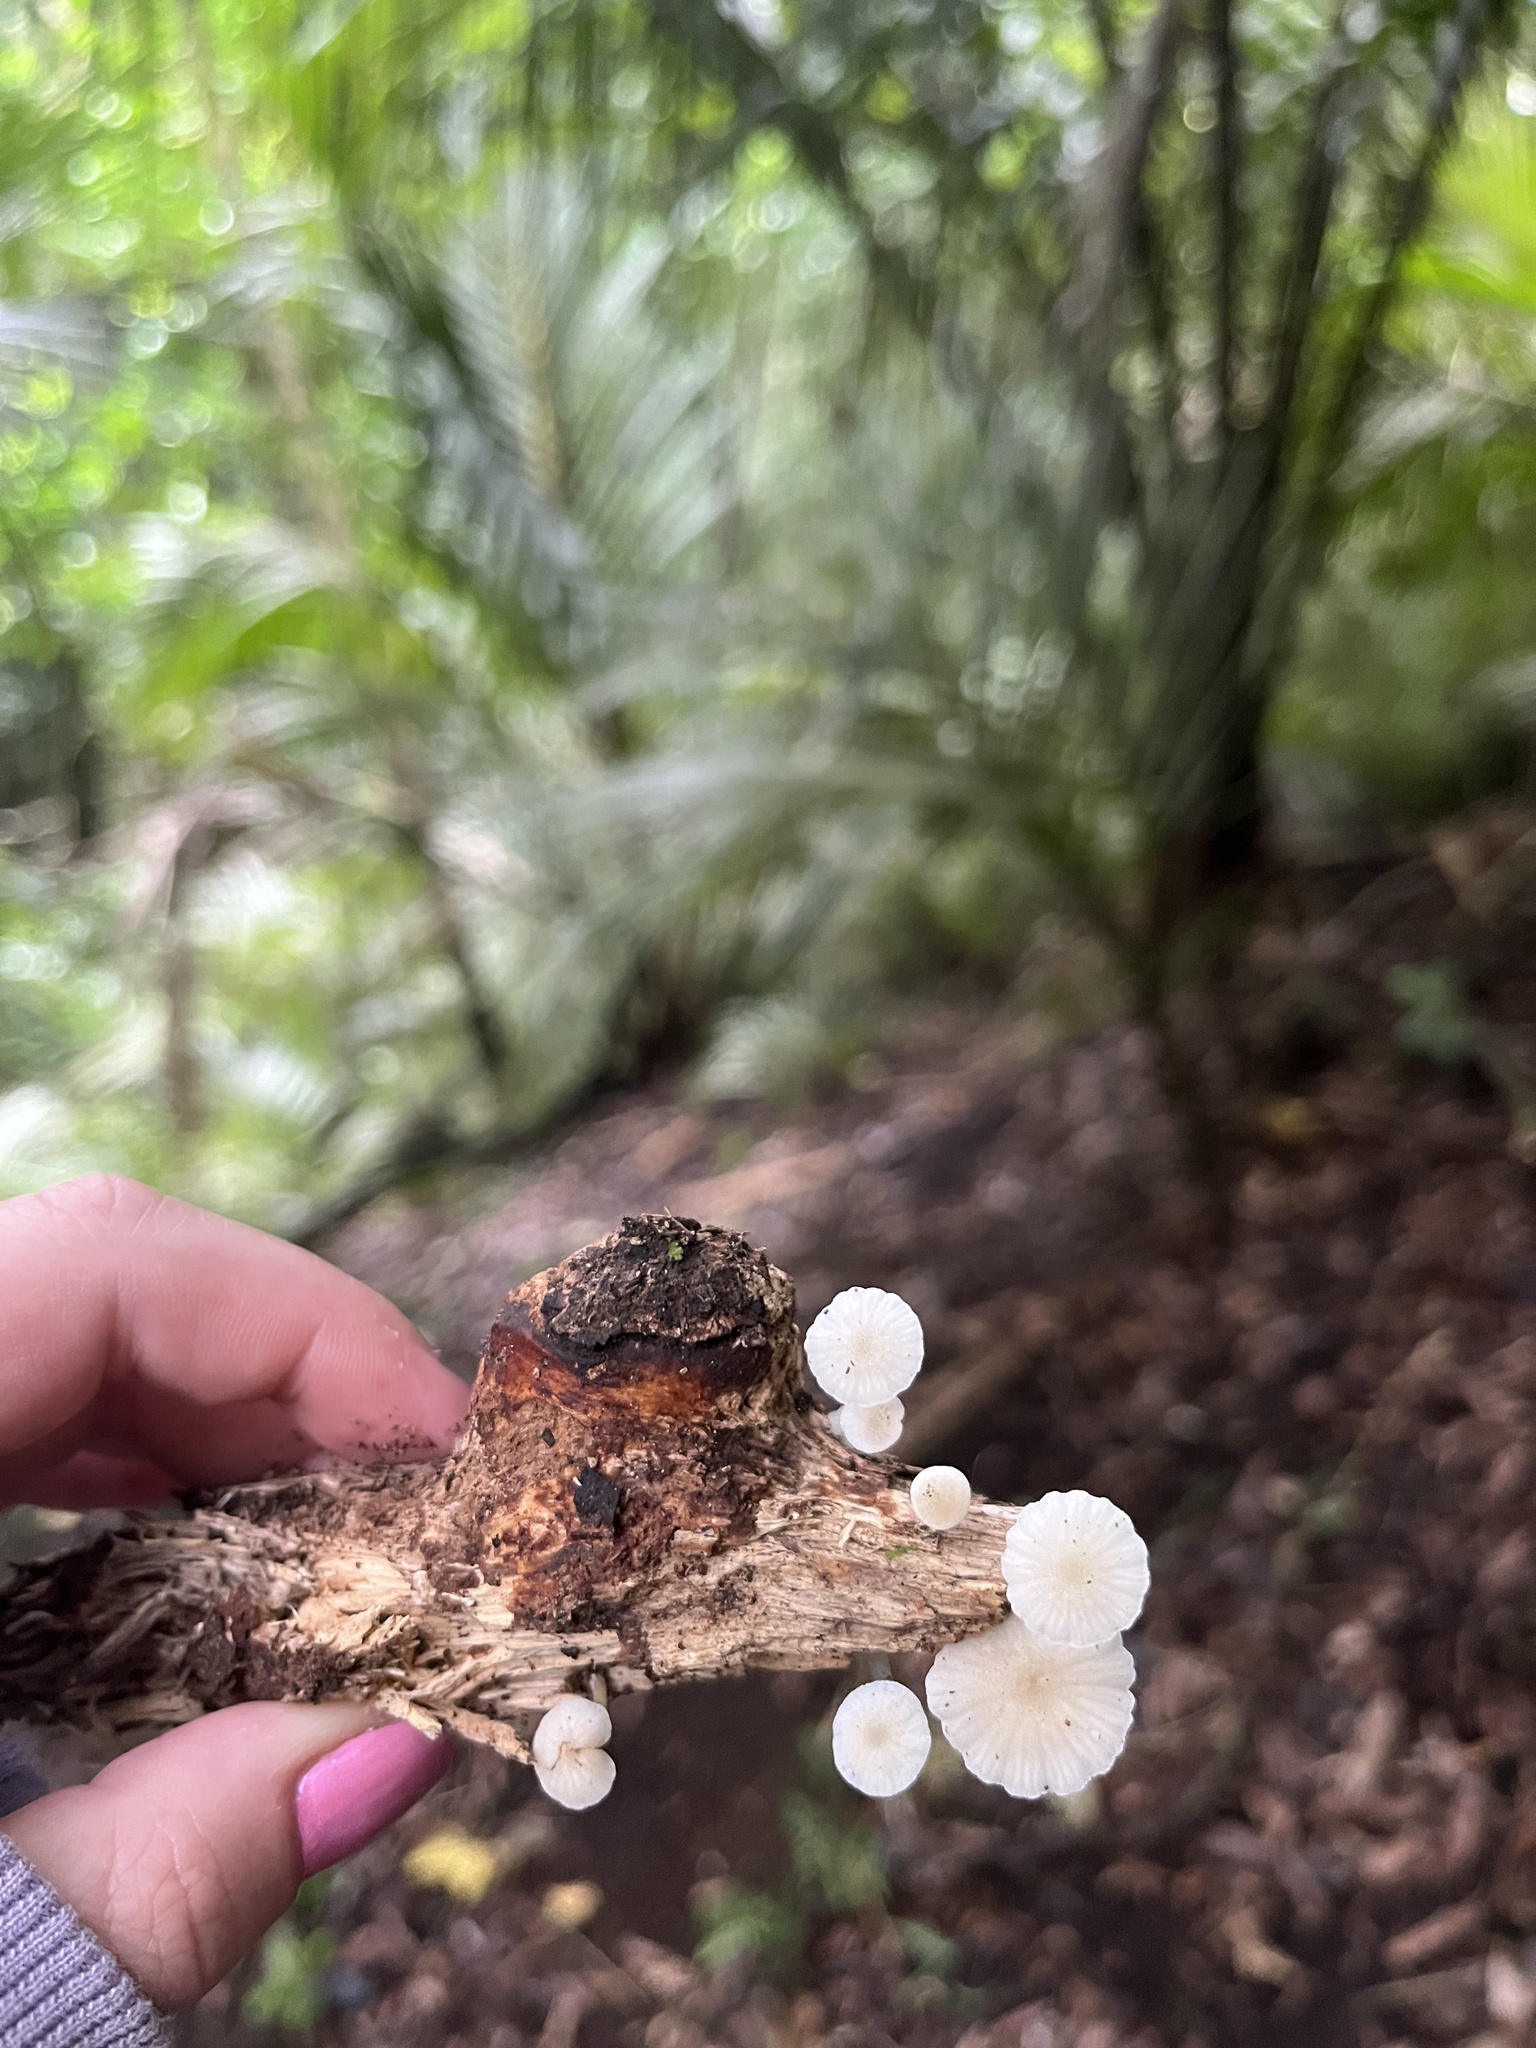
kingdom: Fungi
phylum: Basidiomycota
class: Agaricomycetes
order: Agaricales
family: Mycenaceae
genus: Roridomyces
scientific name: Roridomyces austrororidus
